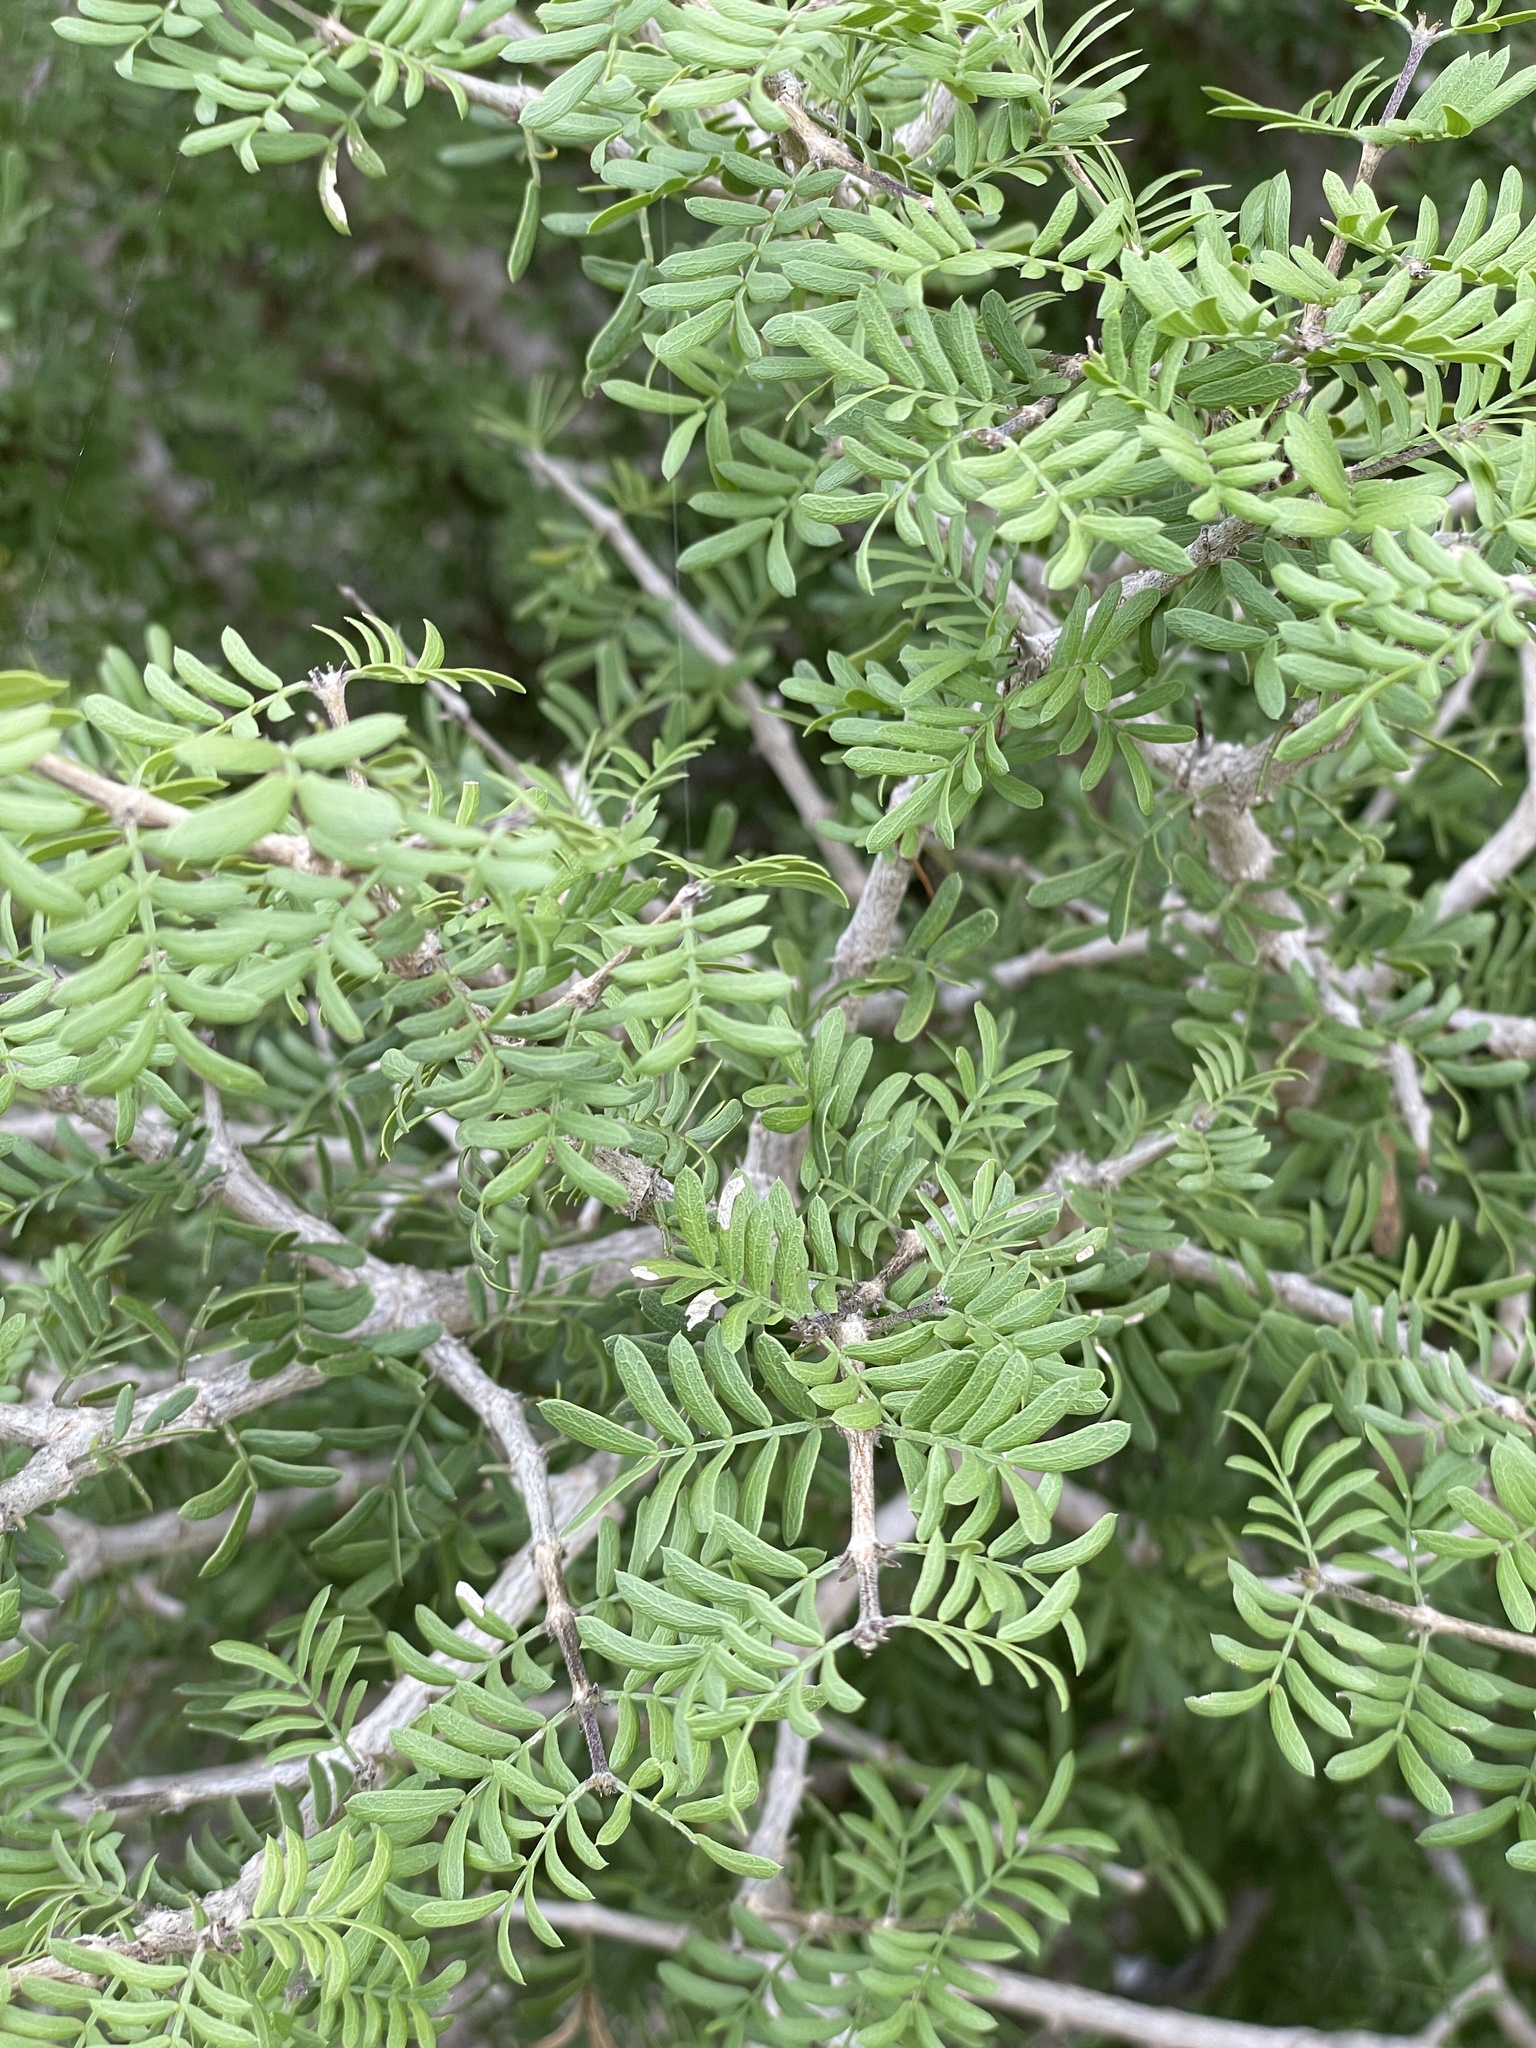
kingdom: Plantae
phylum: Tracheophyta
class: Magnoliopsida
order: Zygophyllales
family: Zygophyllaceae
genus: Porlieria
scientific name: Porlieria angustifolia
